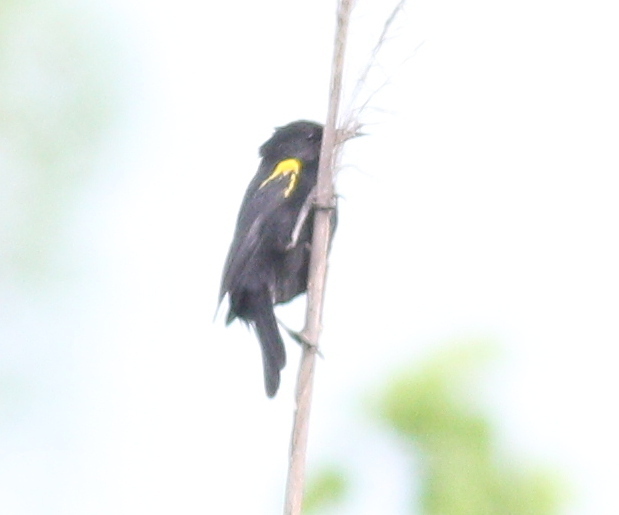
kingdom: Animalia
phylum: Chordata
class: Aves
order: Passeriformes
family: Icteridae
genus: Agelasticus
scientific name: Agelasticus thilius
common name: Yellow-winged blackbird
